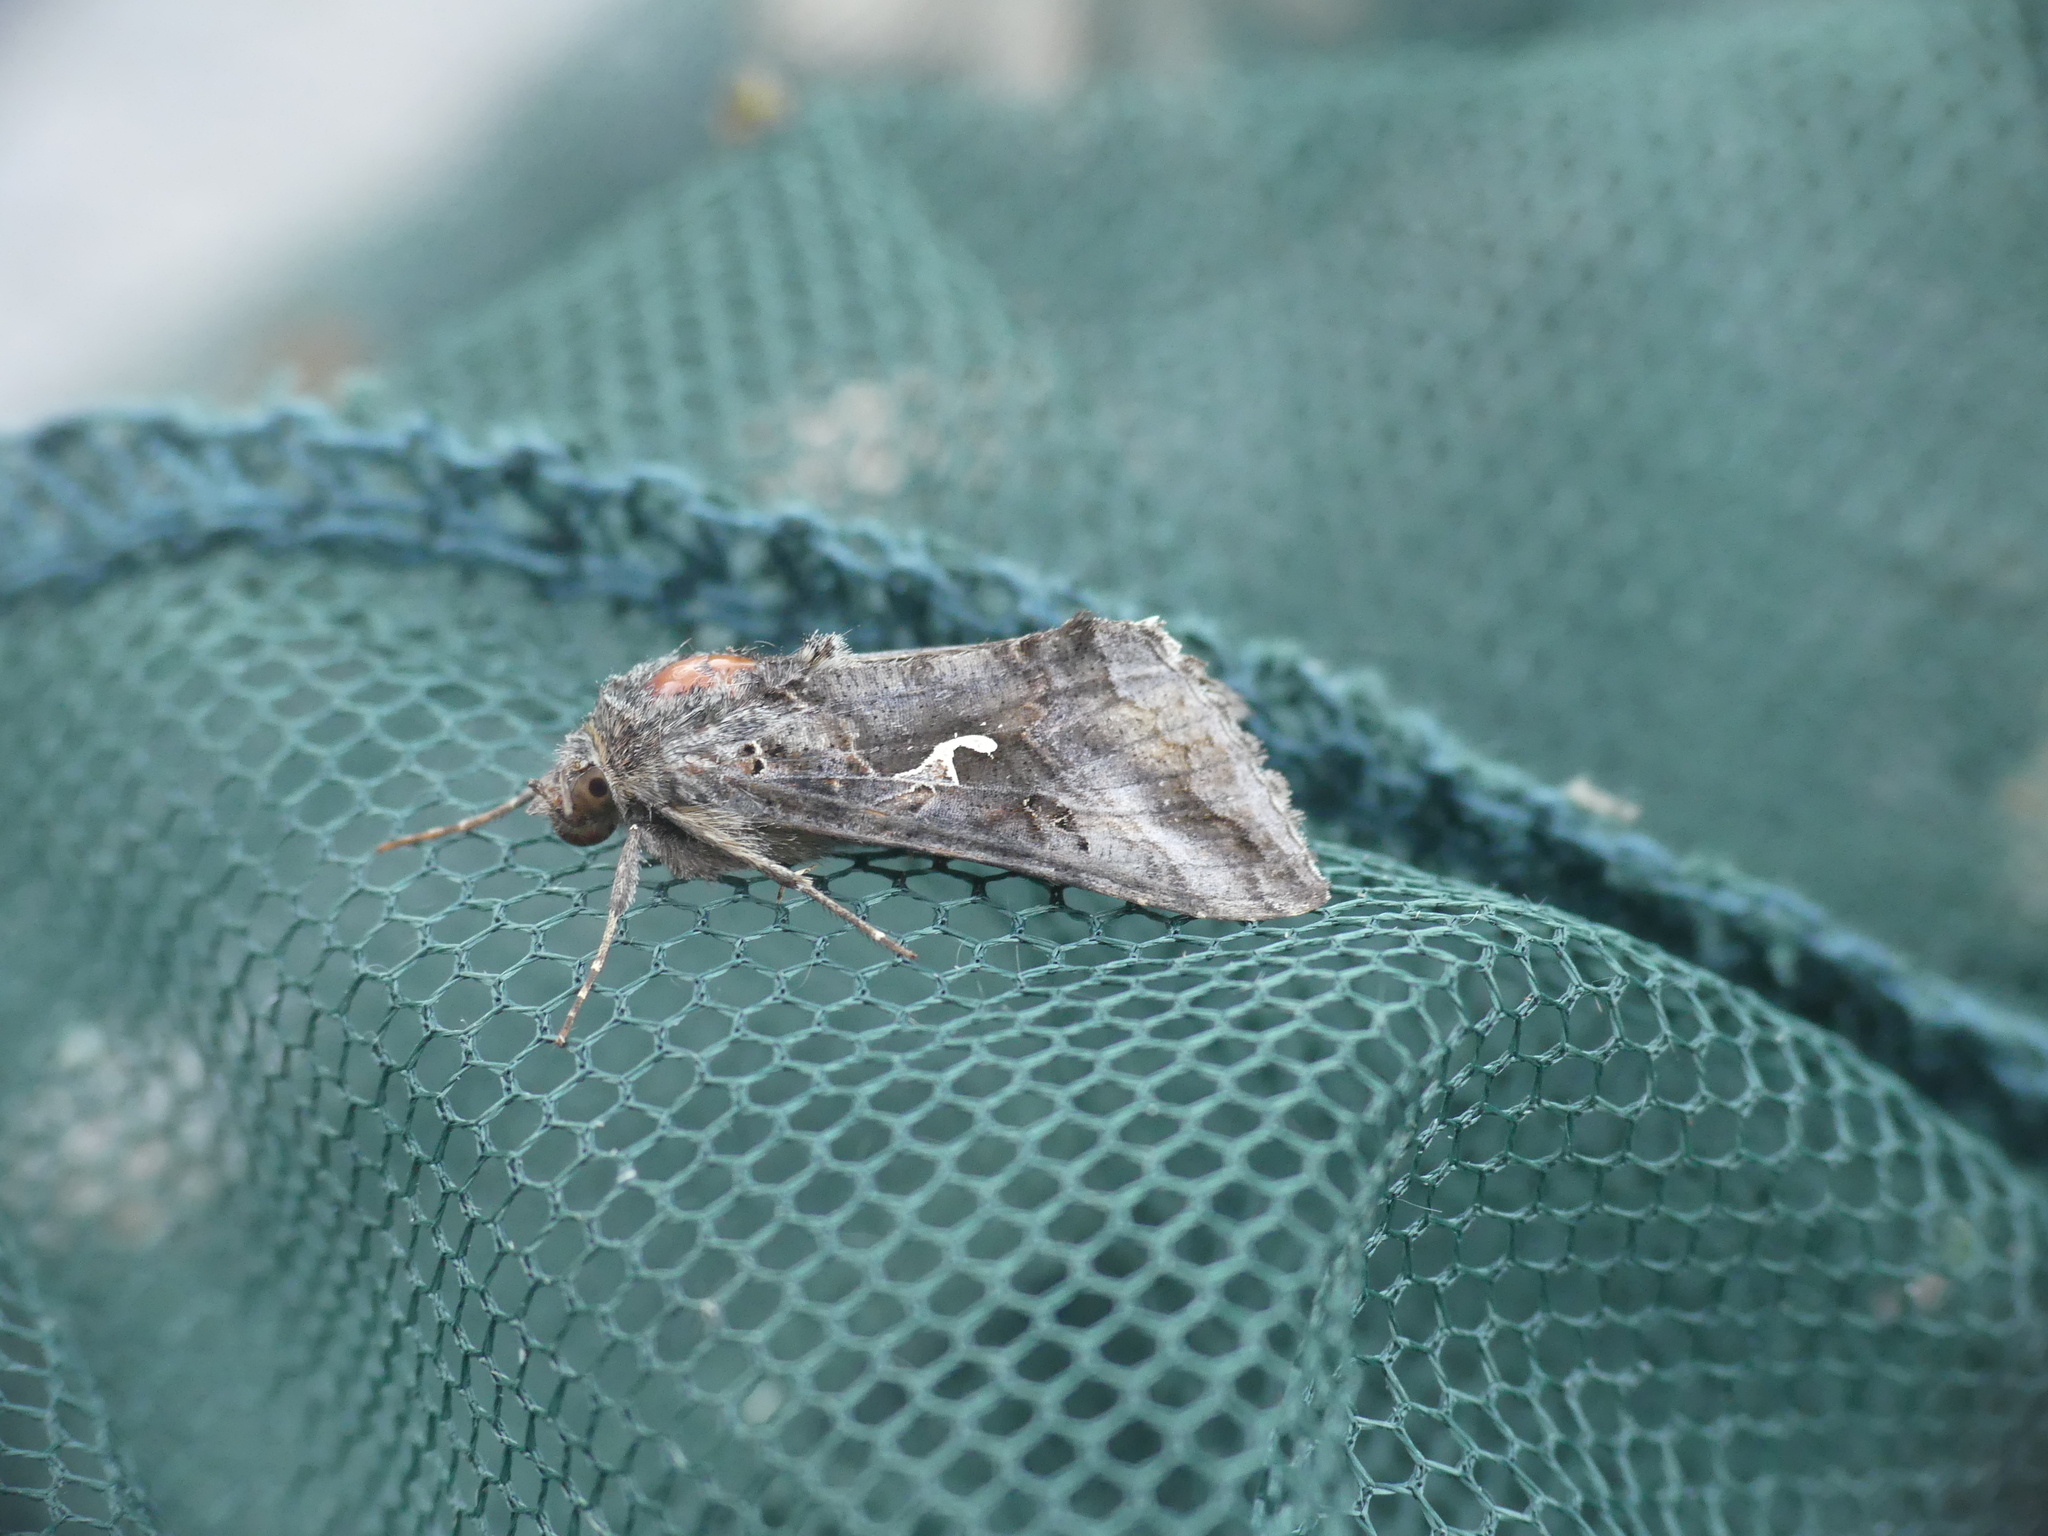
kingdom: Animalia
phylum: Arthropoda
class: Insecta
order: Lepidoptera
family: Noctuidae
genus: Autographa
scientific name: Autographa gamma
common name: Silver y
